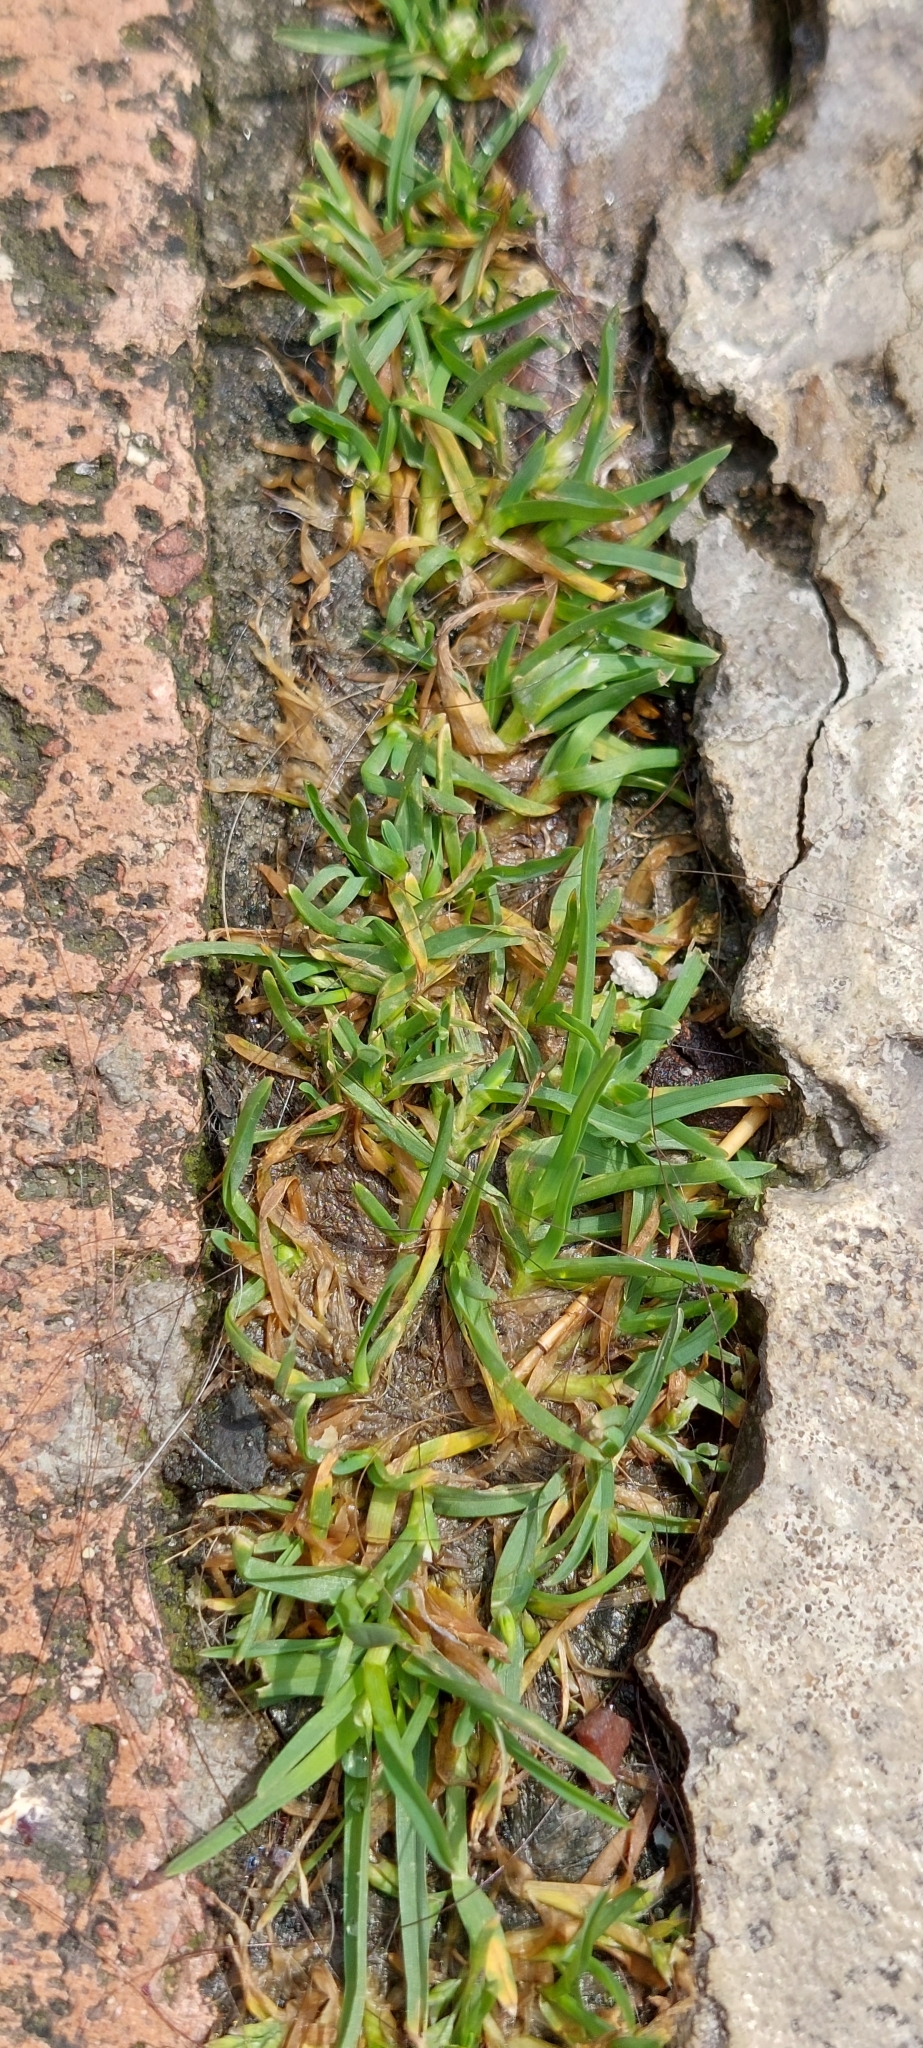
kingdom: Plantae
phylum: Tracheophyta
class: Liliopsida
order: Poales
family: Poaceae
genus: Poa
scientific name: Poa annua
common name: Annual bluegrass
